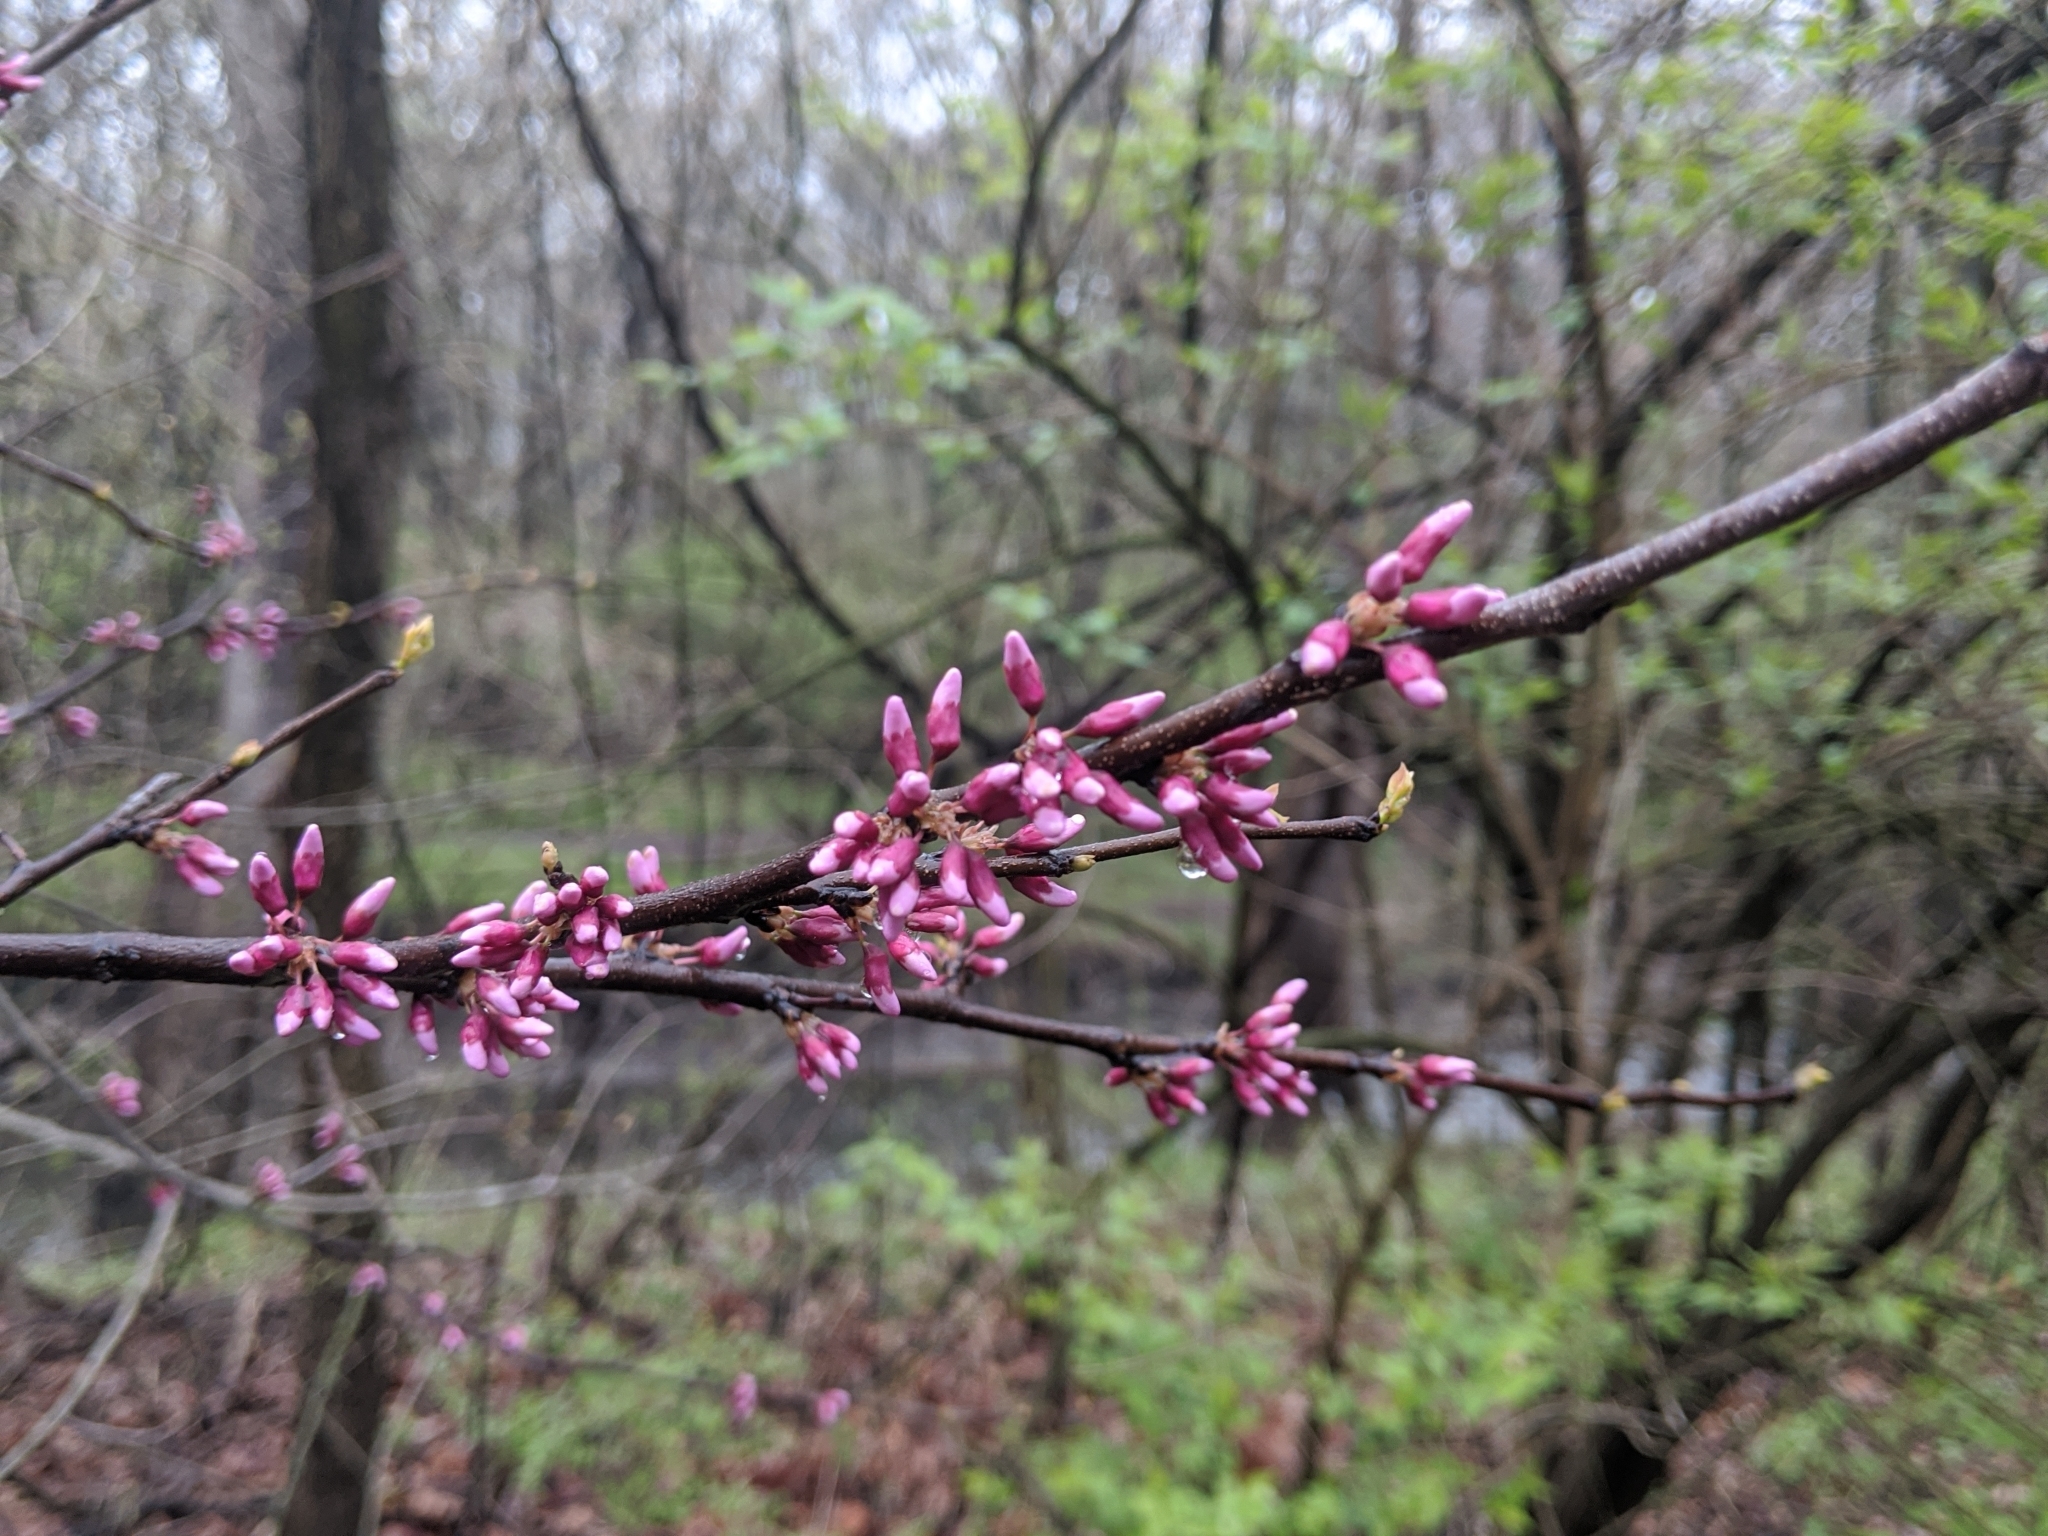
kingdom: Plantae
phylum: Tracheophyta
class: Magnoliopsida
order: Fabales
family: Fabaceae
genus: Cercis
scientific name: Cercis canadensis
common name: Eastern redbud
